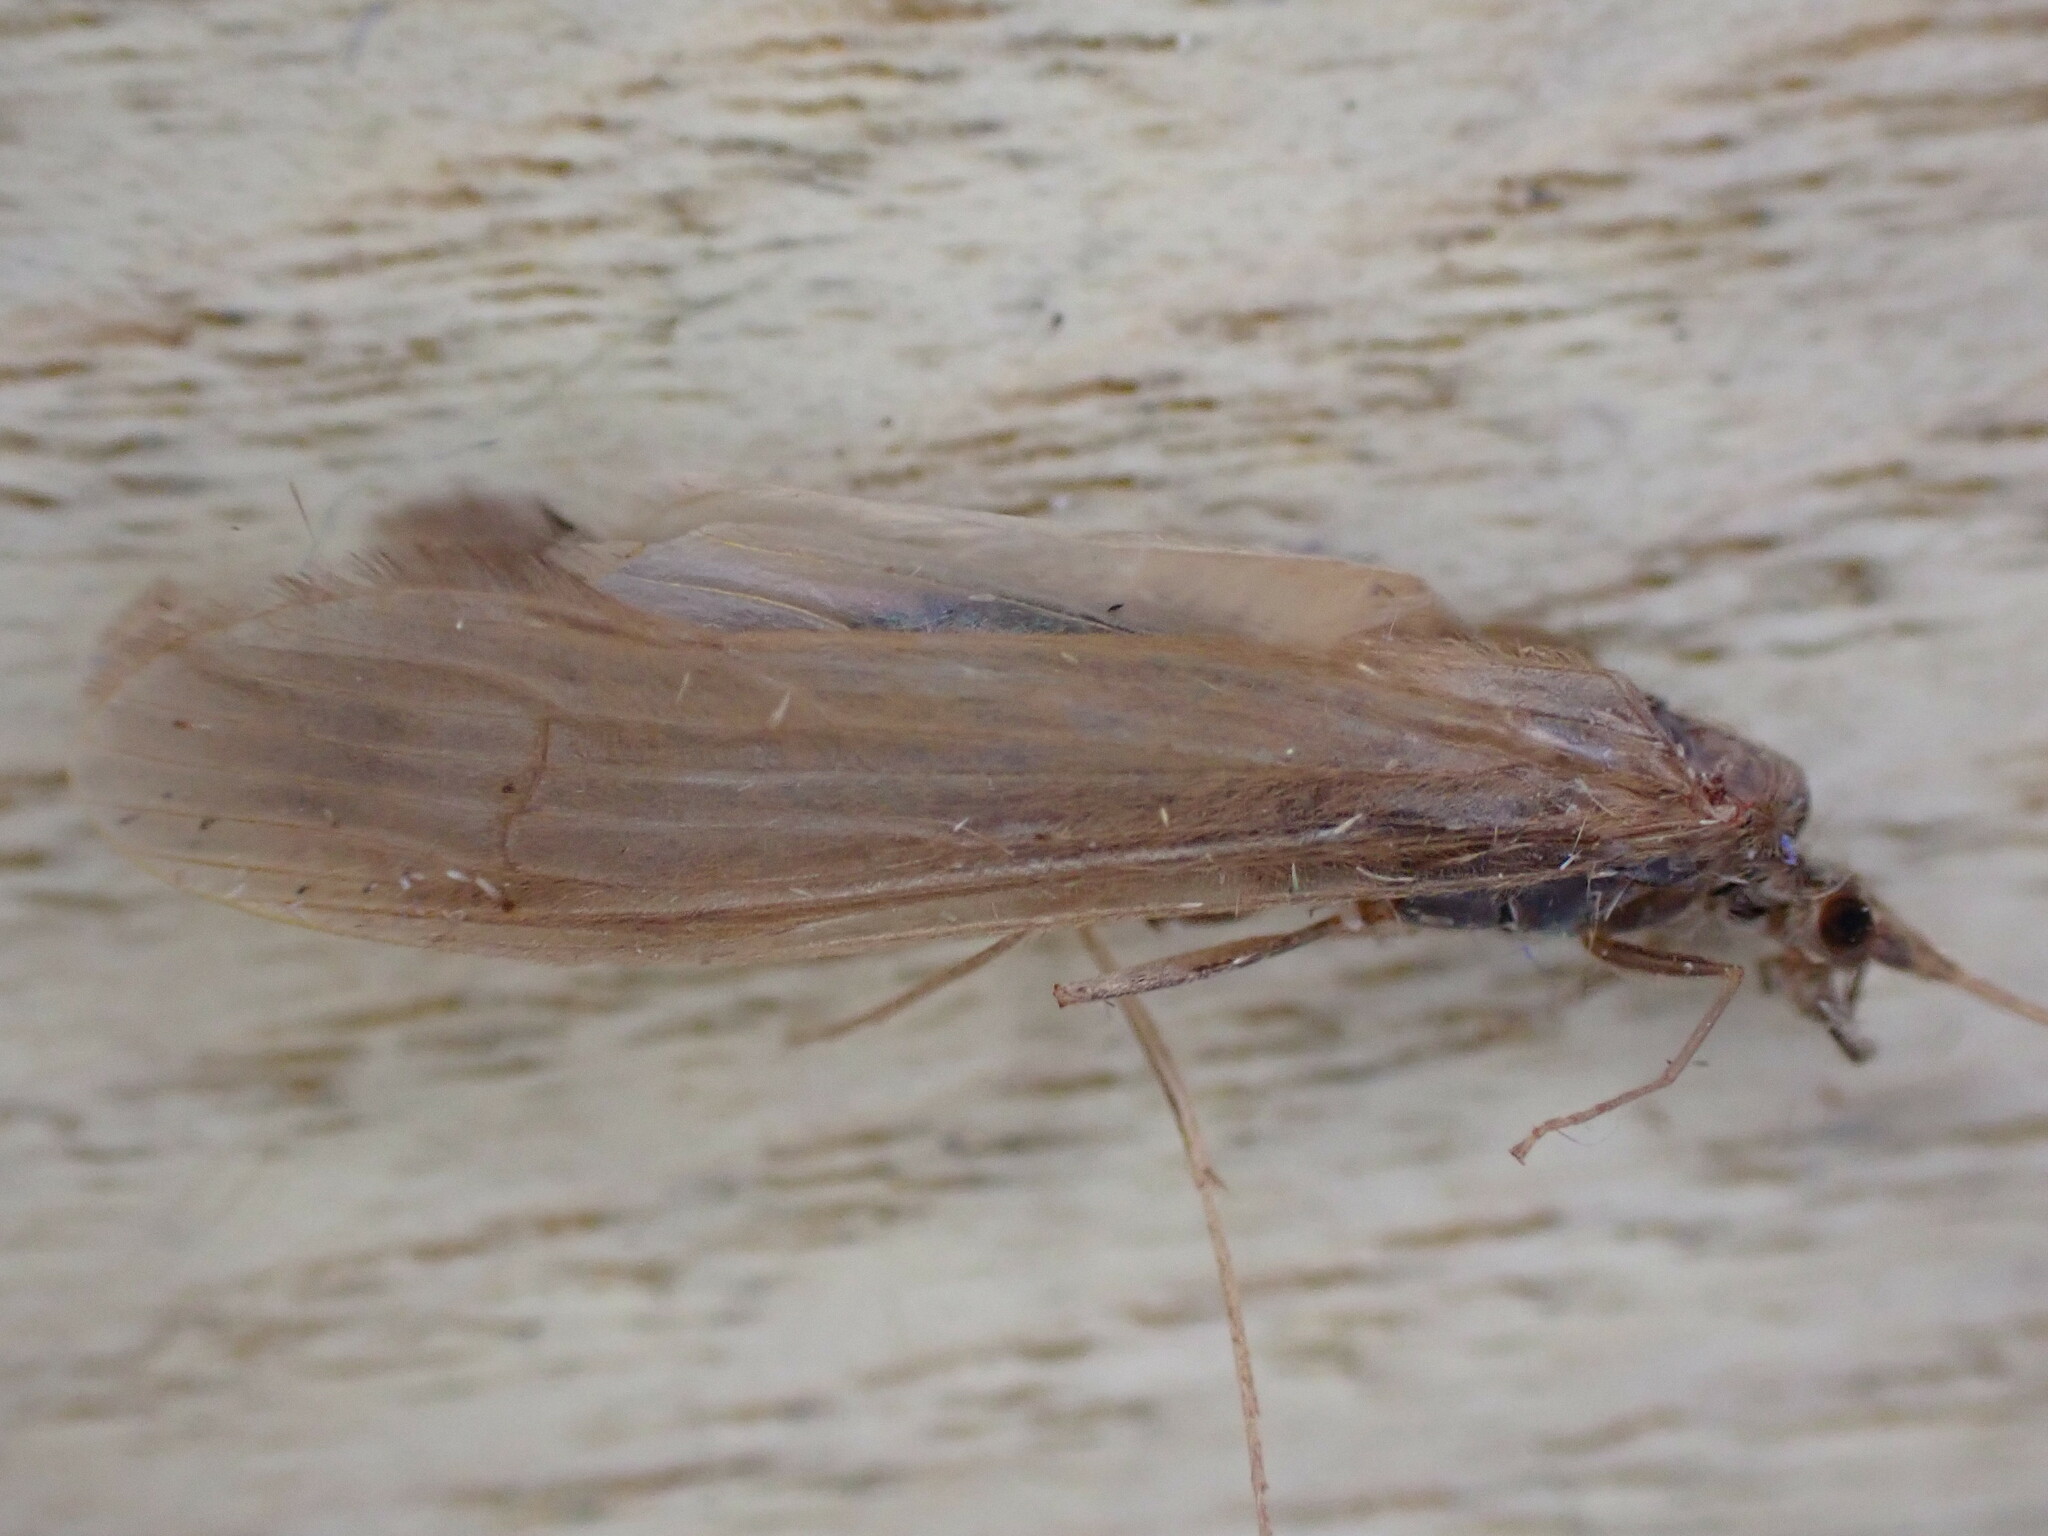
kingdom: Animalia
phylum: Arthropoda
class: Insecta
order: Trichoptera
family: Leptoceridae
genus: Oecetis
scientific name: Oecetis ochracea
